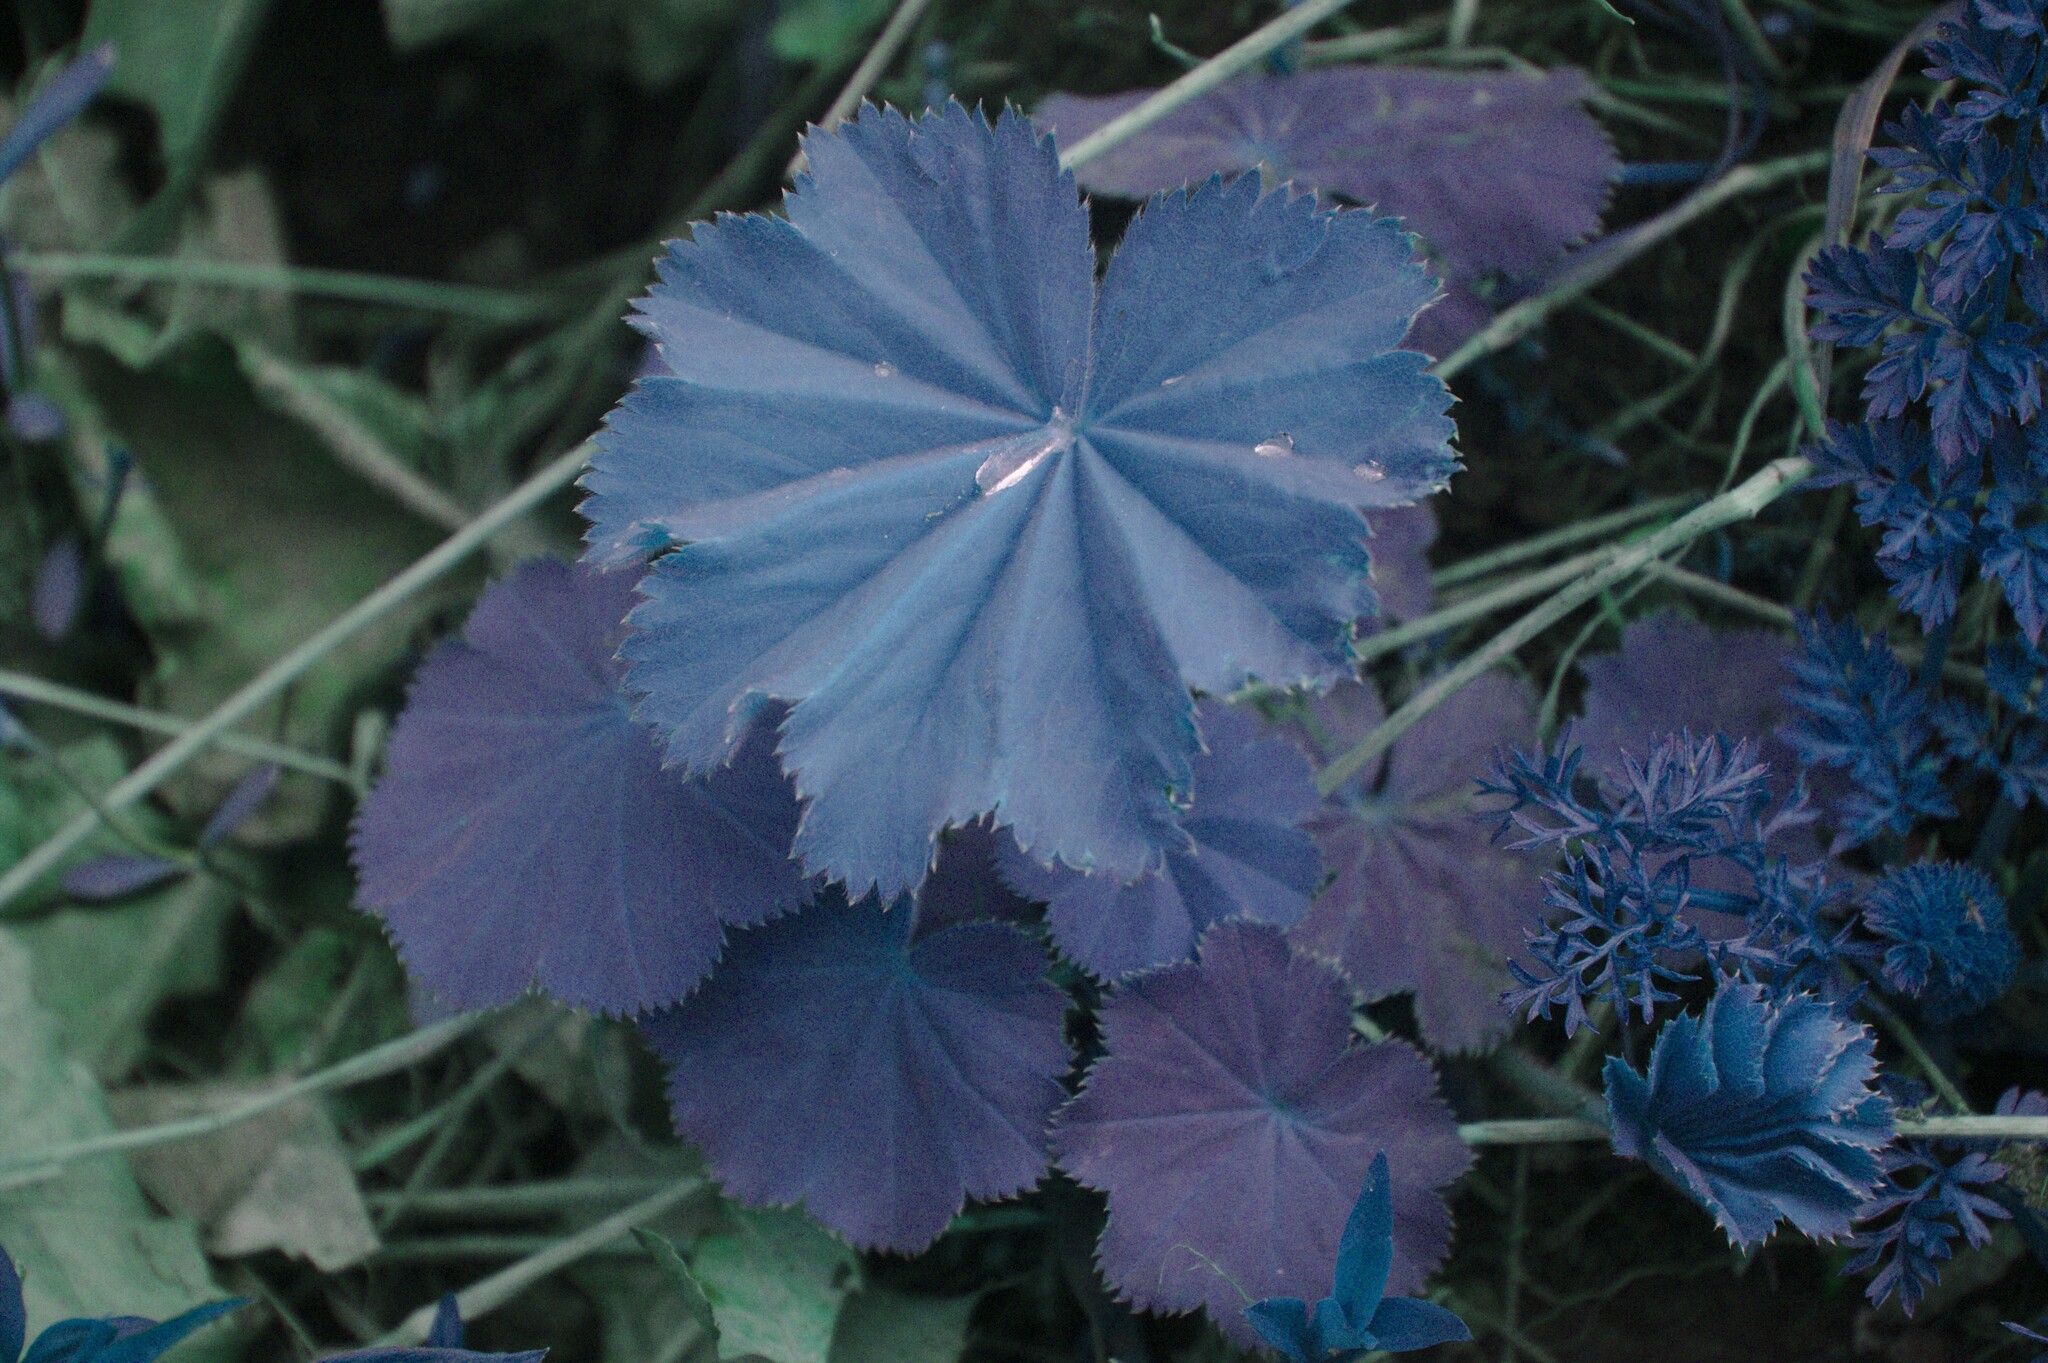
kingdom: Plantae
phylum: Tracheophyta
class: Magnoliopsida
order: Rosales
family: Rosaceae
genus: Alchemilla
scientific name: Alchemilla mollis
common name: Lady's-mantle
